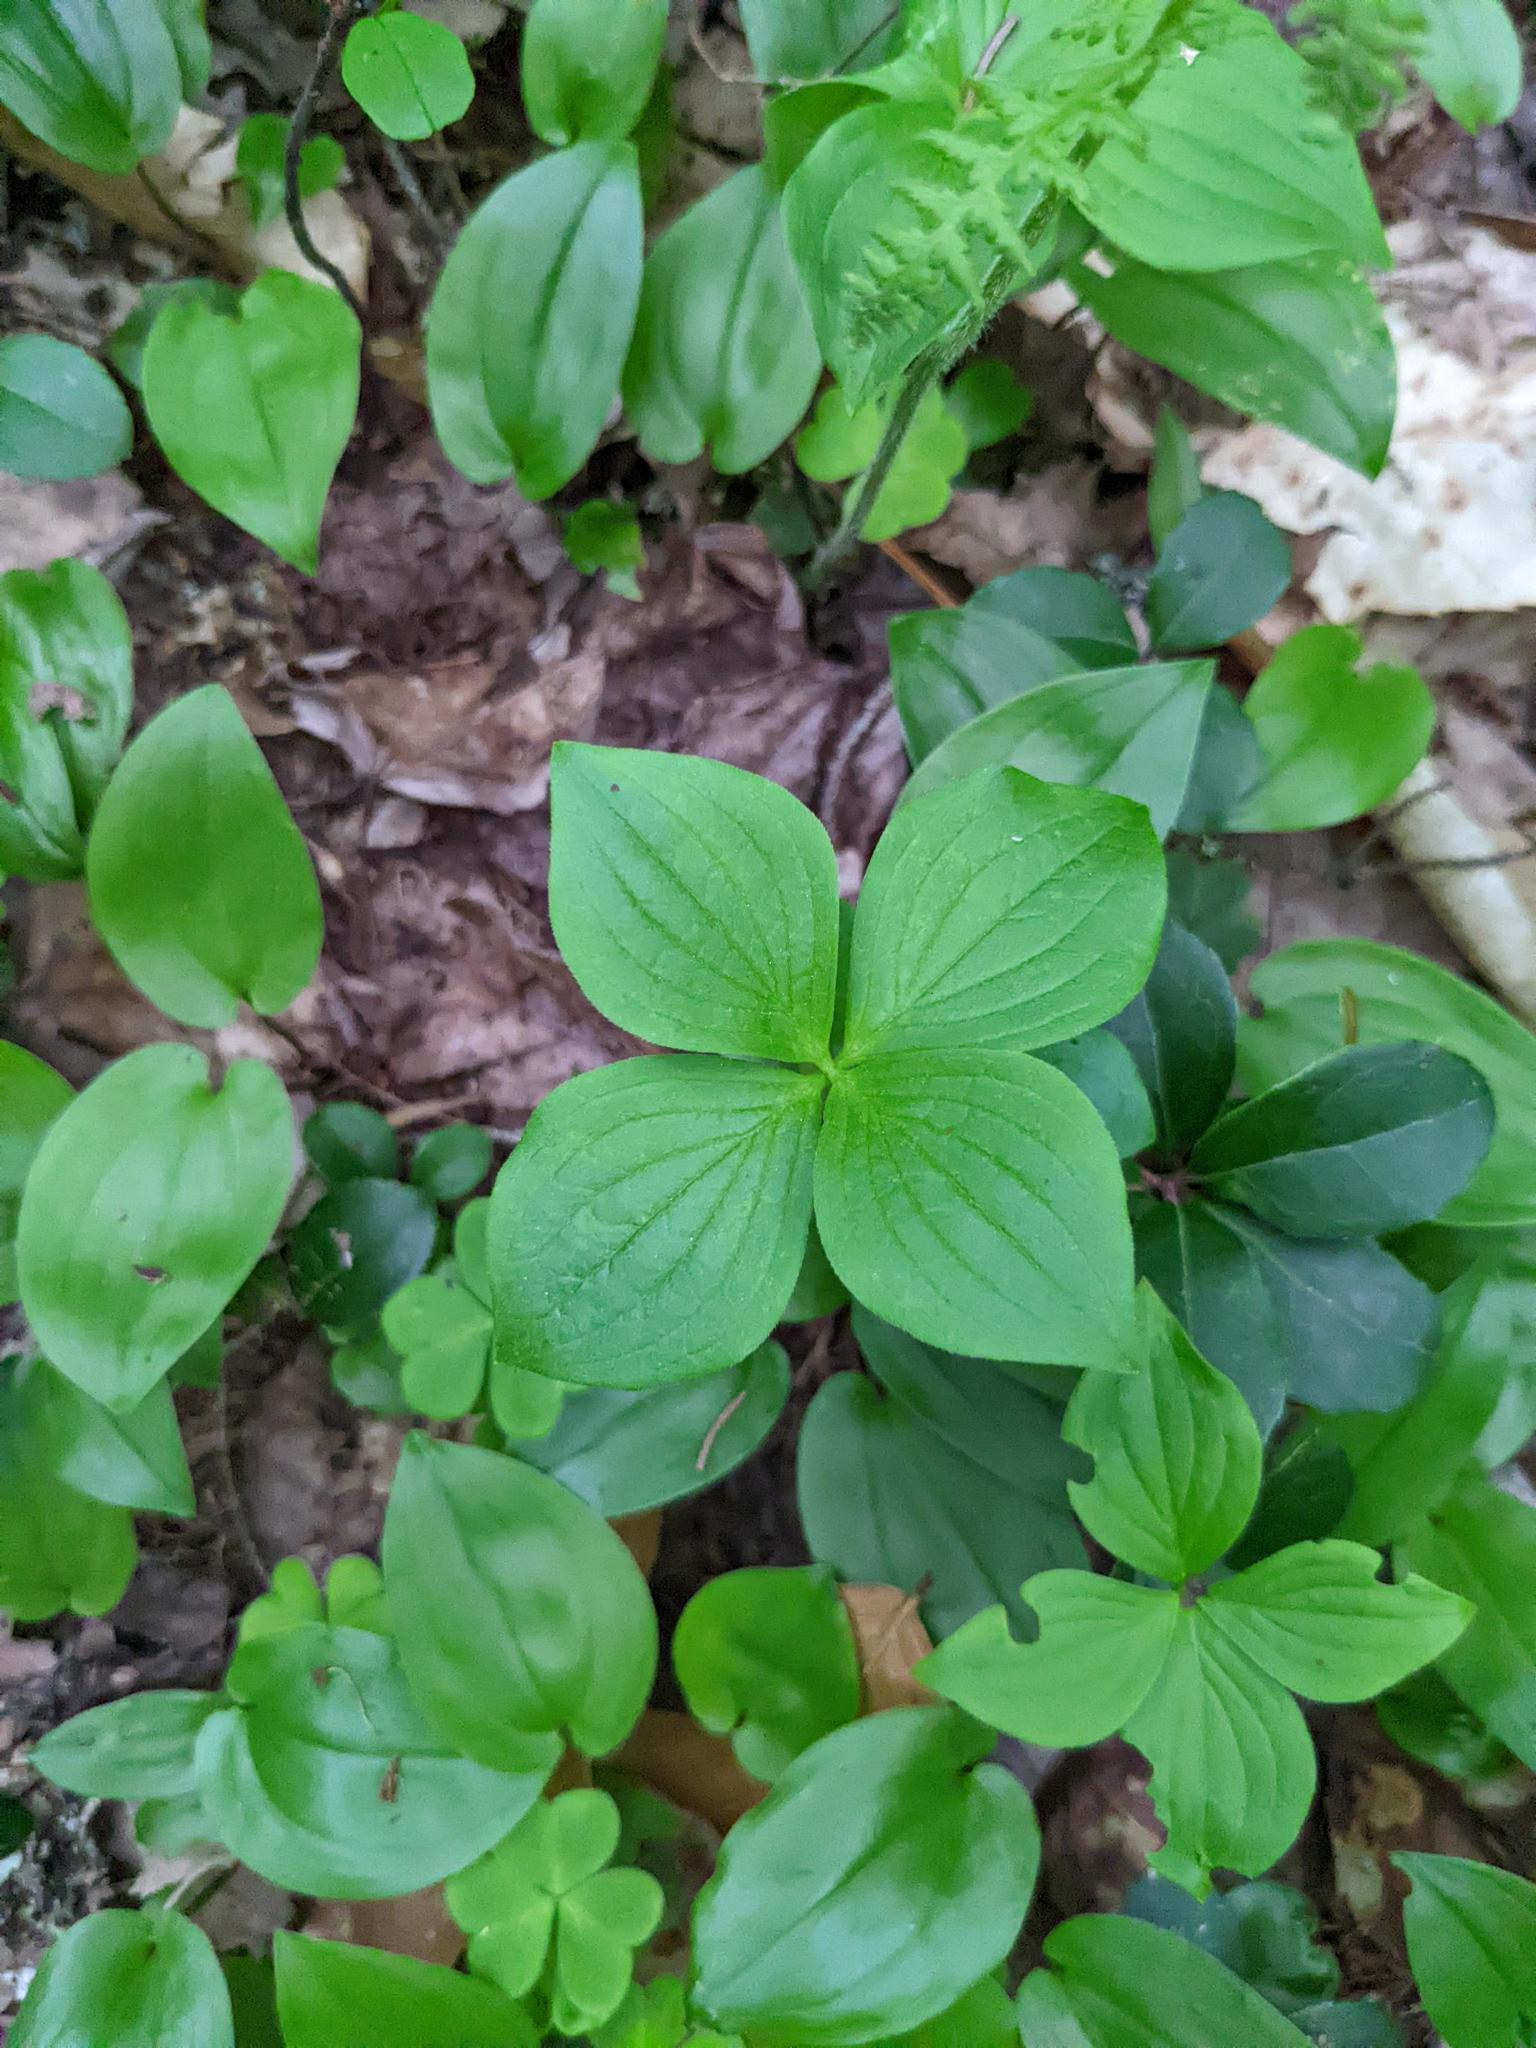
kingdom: Plantae
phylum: Tracheophyta
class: Magnoliopsida
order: Cornales
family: Cornaceae
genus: Cornus
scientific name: Cornus canadensis
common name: Creeping dogwood
